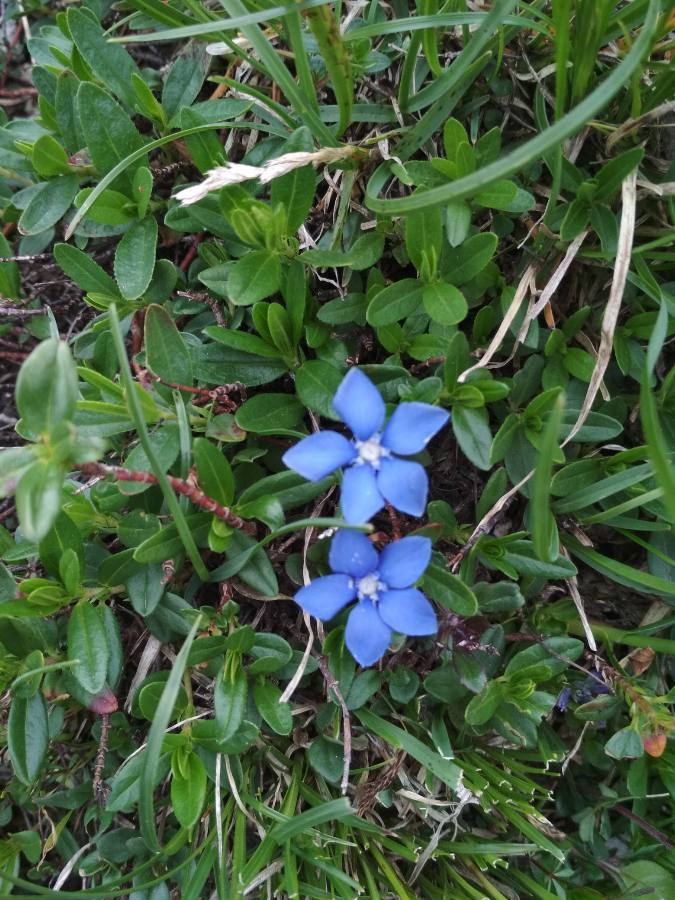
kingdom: Plantae
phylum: Tracheophyta
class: Magnoliopsida
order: Gentianales
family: Gentianaceae
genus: Gentiana
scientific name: Gentiana
